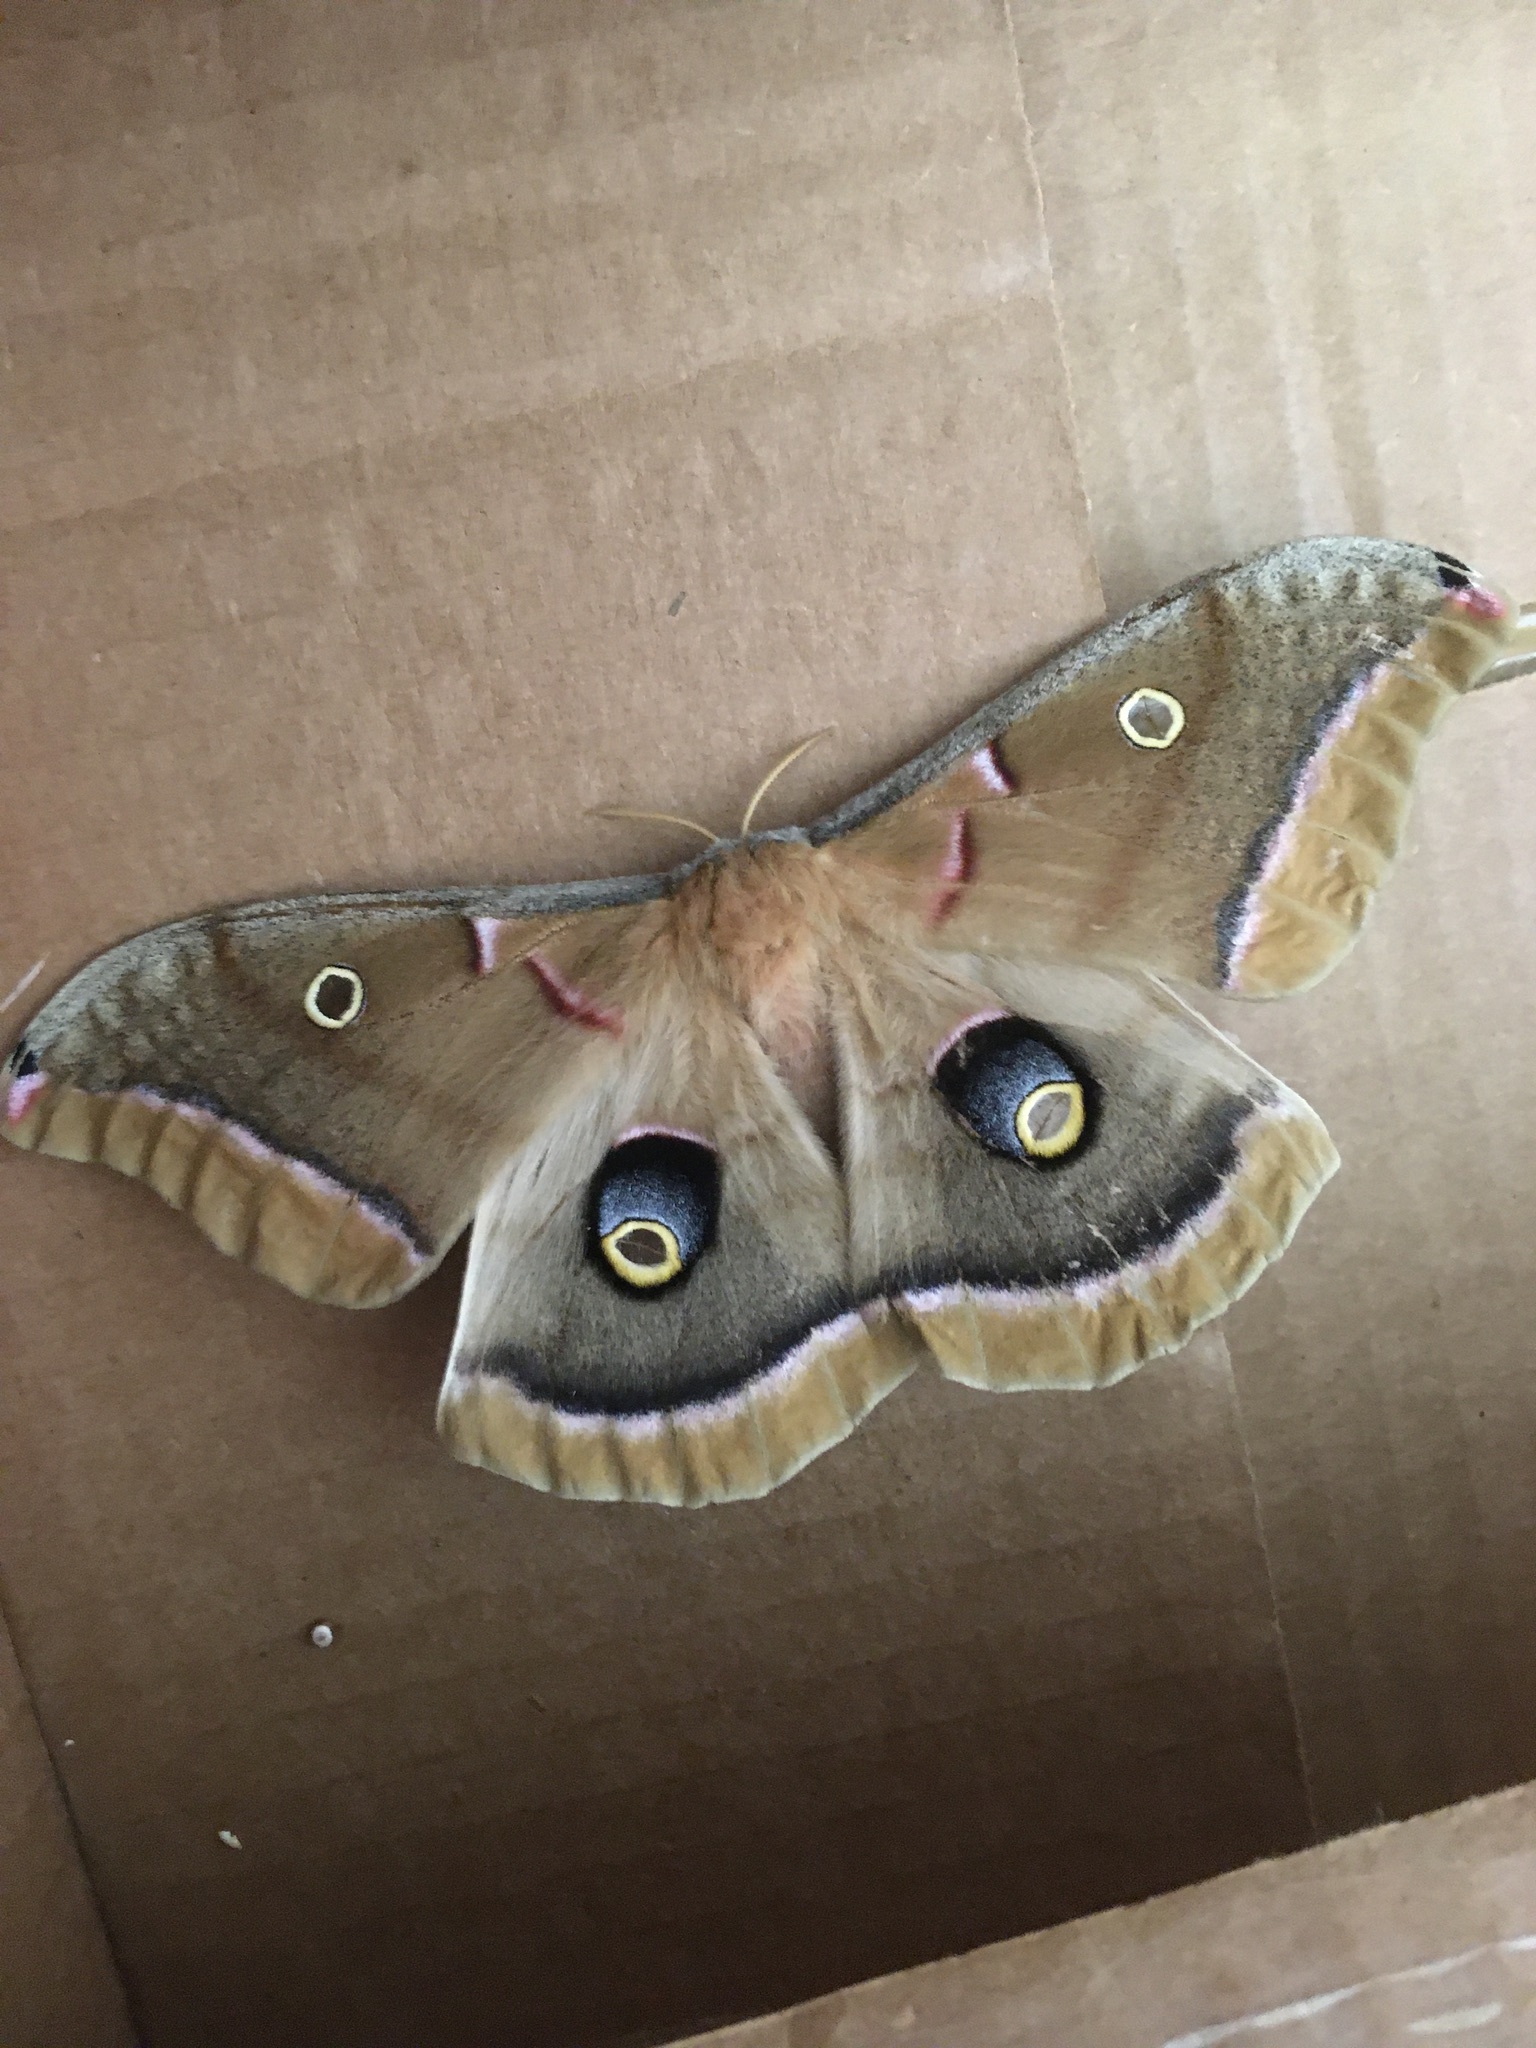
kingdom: Animalia
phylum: Arthropoda
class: Insecta
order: Lepidoptera
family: Saturniidae
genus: Antheraea
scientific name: Antheraea polyphemus
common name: Polyphemus moth
